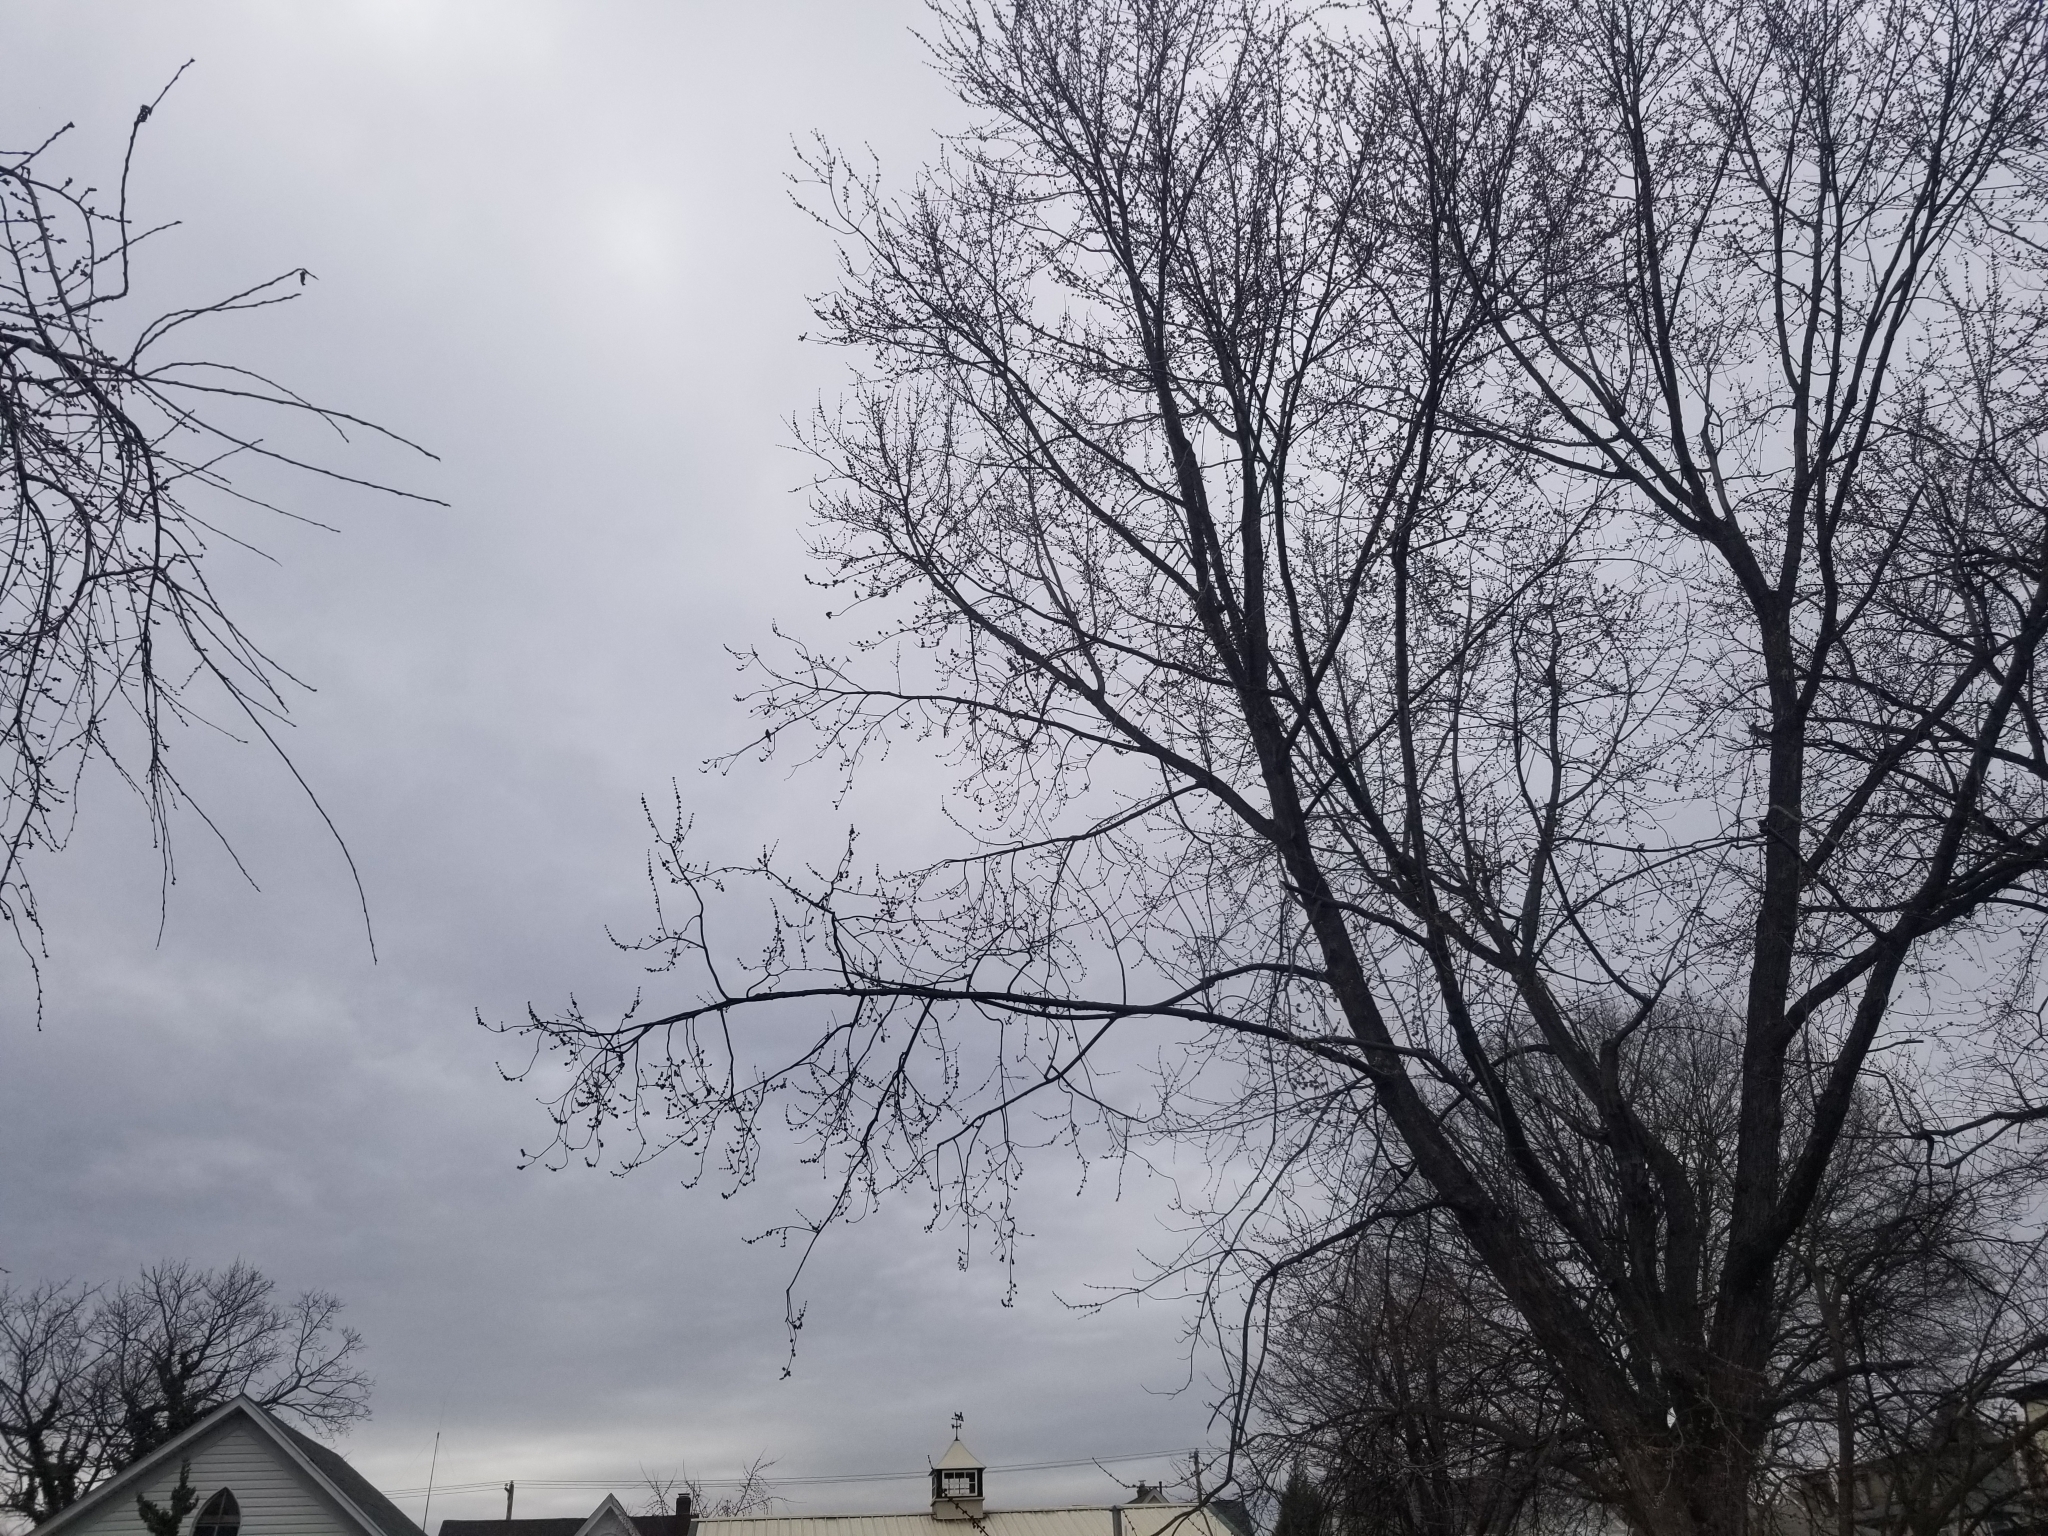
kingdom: Animalia
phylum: Chordata
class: Aves
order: Passeriformes
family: Cardinalidae
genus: Cardinalis
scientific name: Cardinalis cardinalis
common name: Northern cardinal
